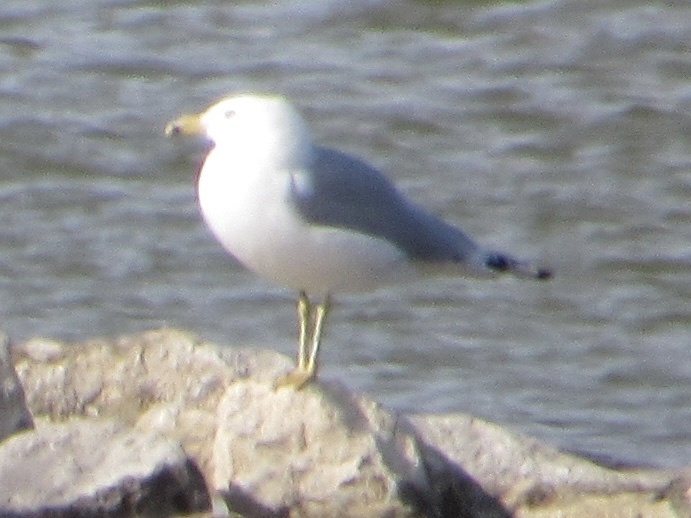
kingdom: Animalia
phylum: Chordata
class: Aves
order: Charadriiformes
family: Laridae
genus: Larus
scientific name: Larus delawarensis
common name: Ring-billed gull
